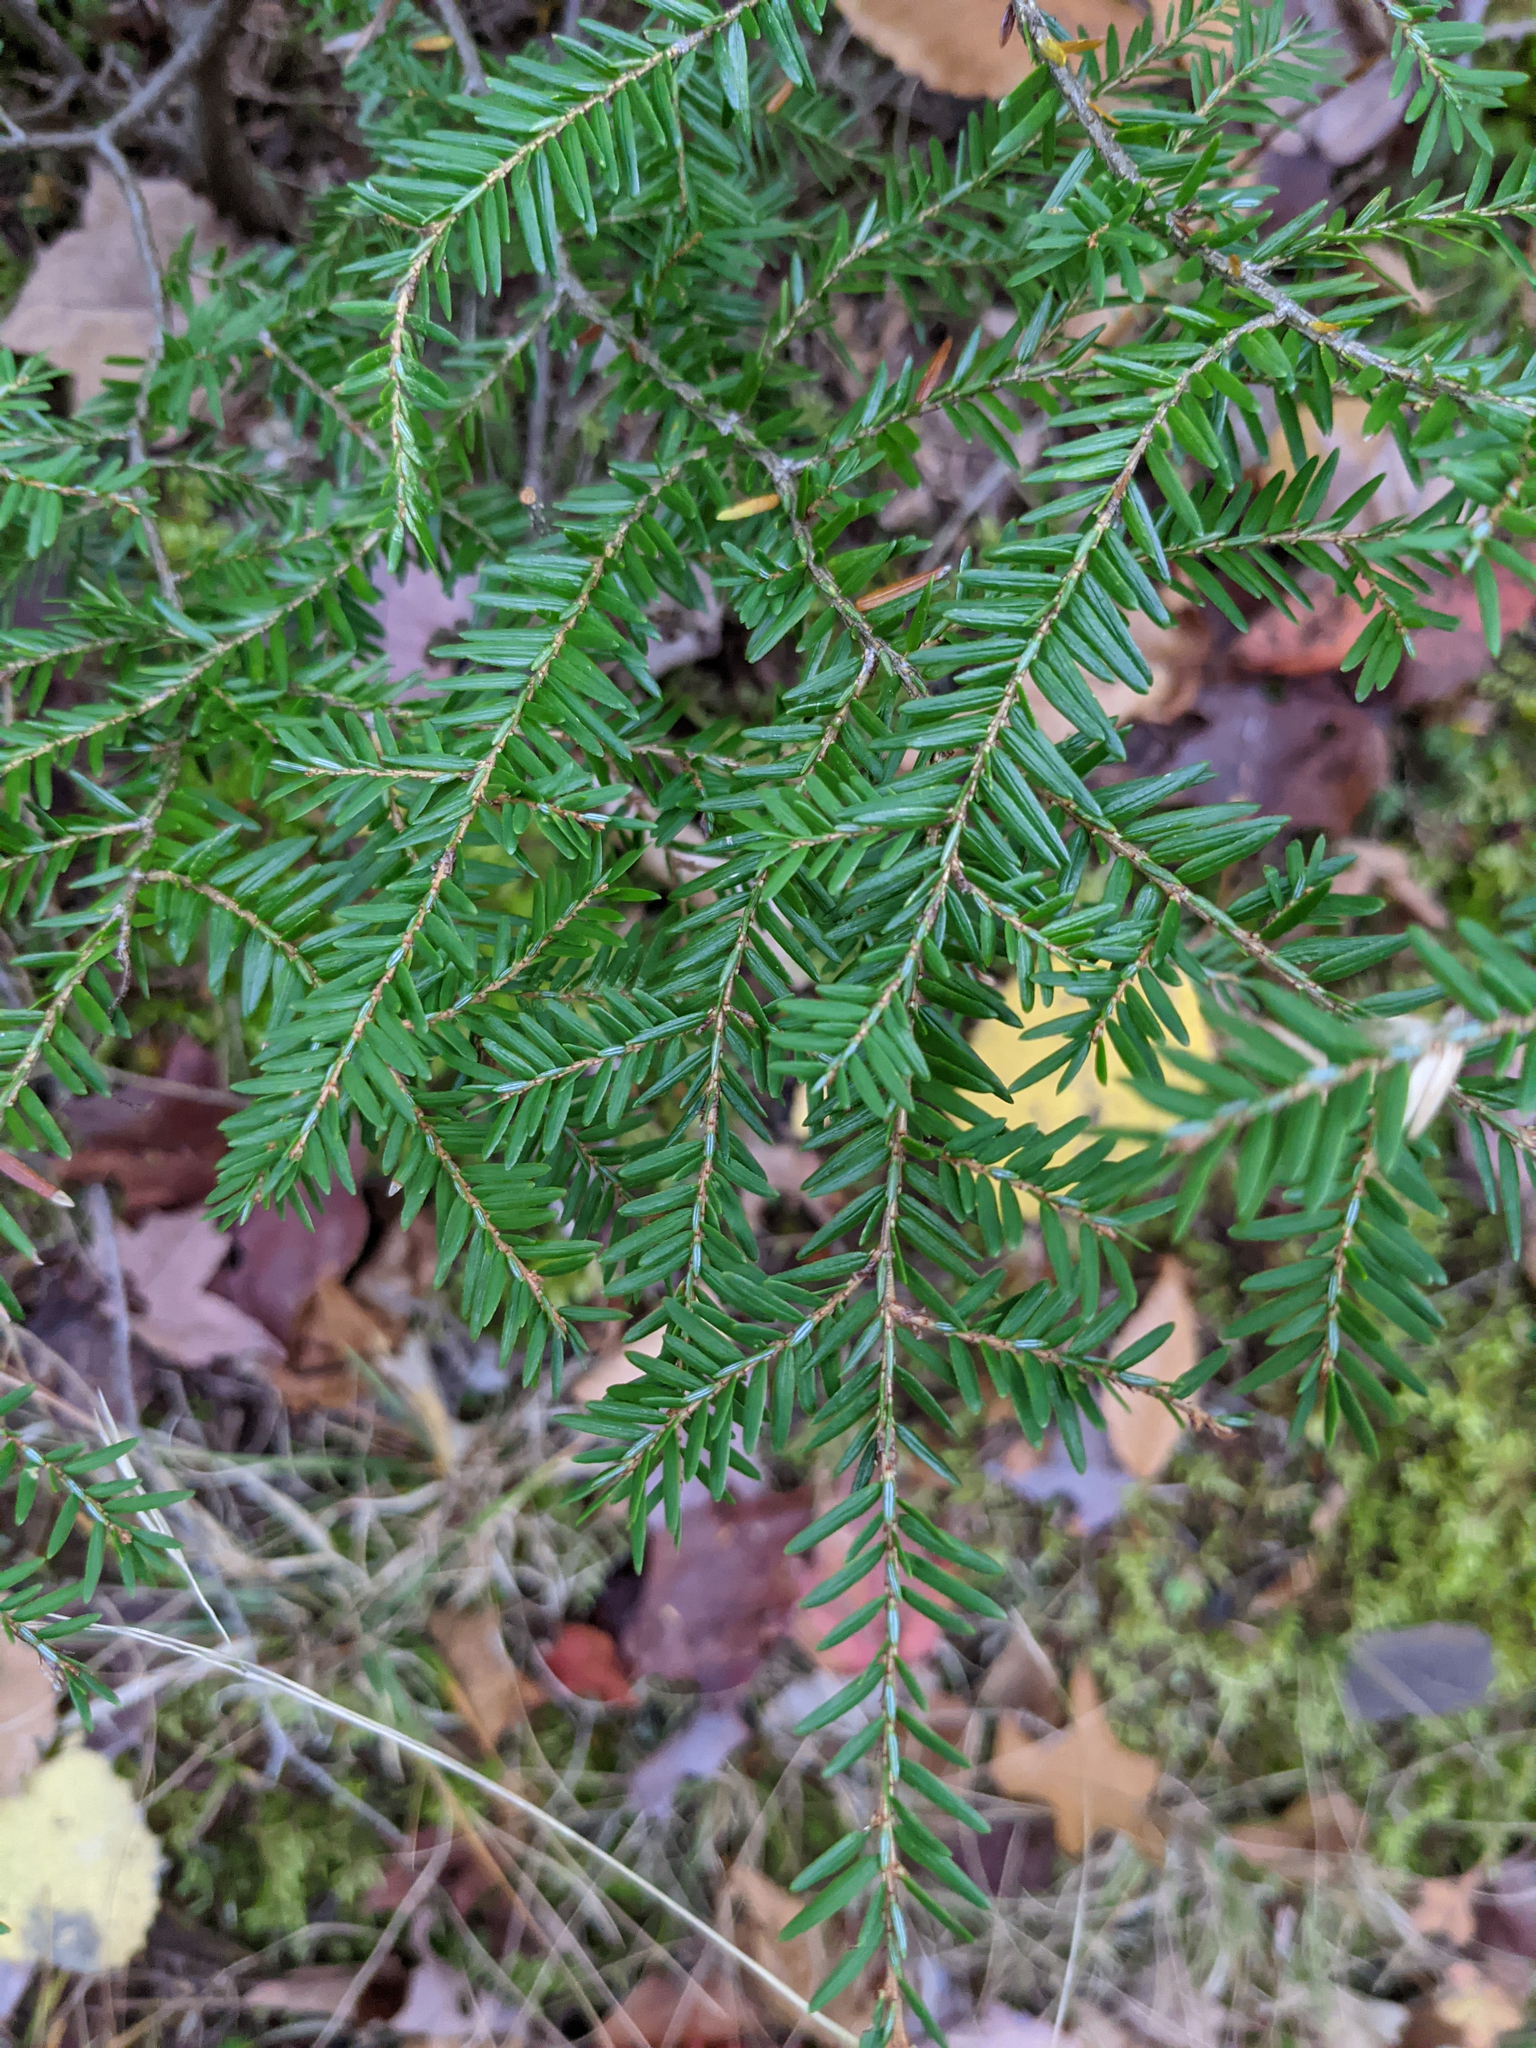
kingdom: Plantae
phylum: Tracheophyta
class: Pinopsida
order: Pinales
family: Pinaceae
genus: Tsuga
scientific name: Tsuga canadensis
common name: Eastern hemlock
